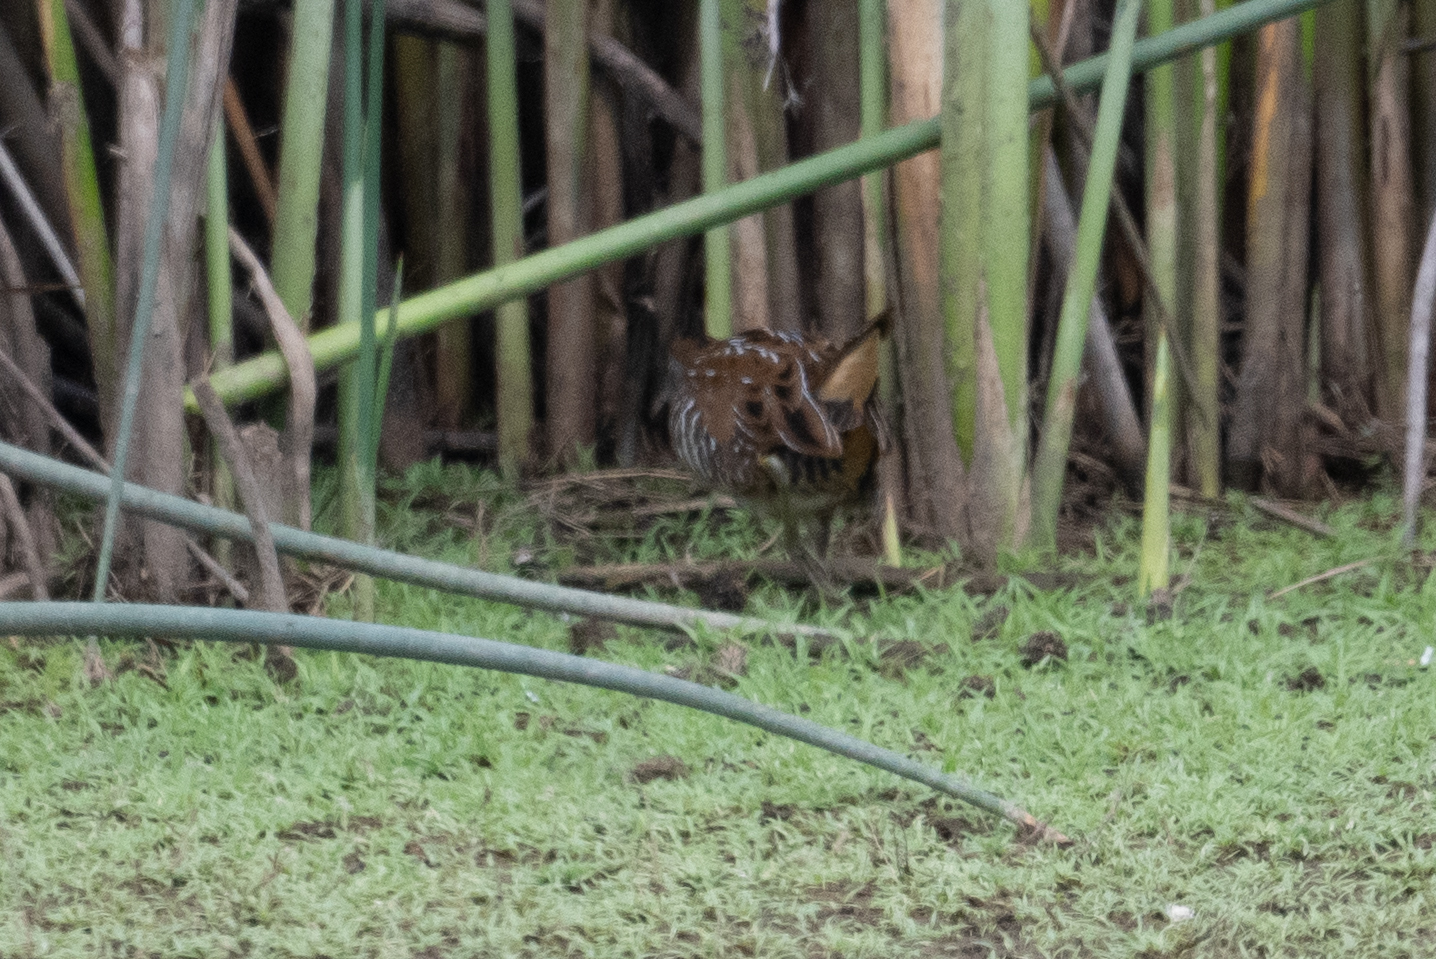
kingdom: Animalia
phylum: Chordata
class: Aves
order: Gruiformes
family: Rallidae
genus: Porzana
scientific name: Porzana carolina
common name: Sora
